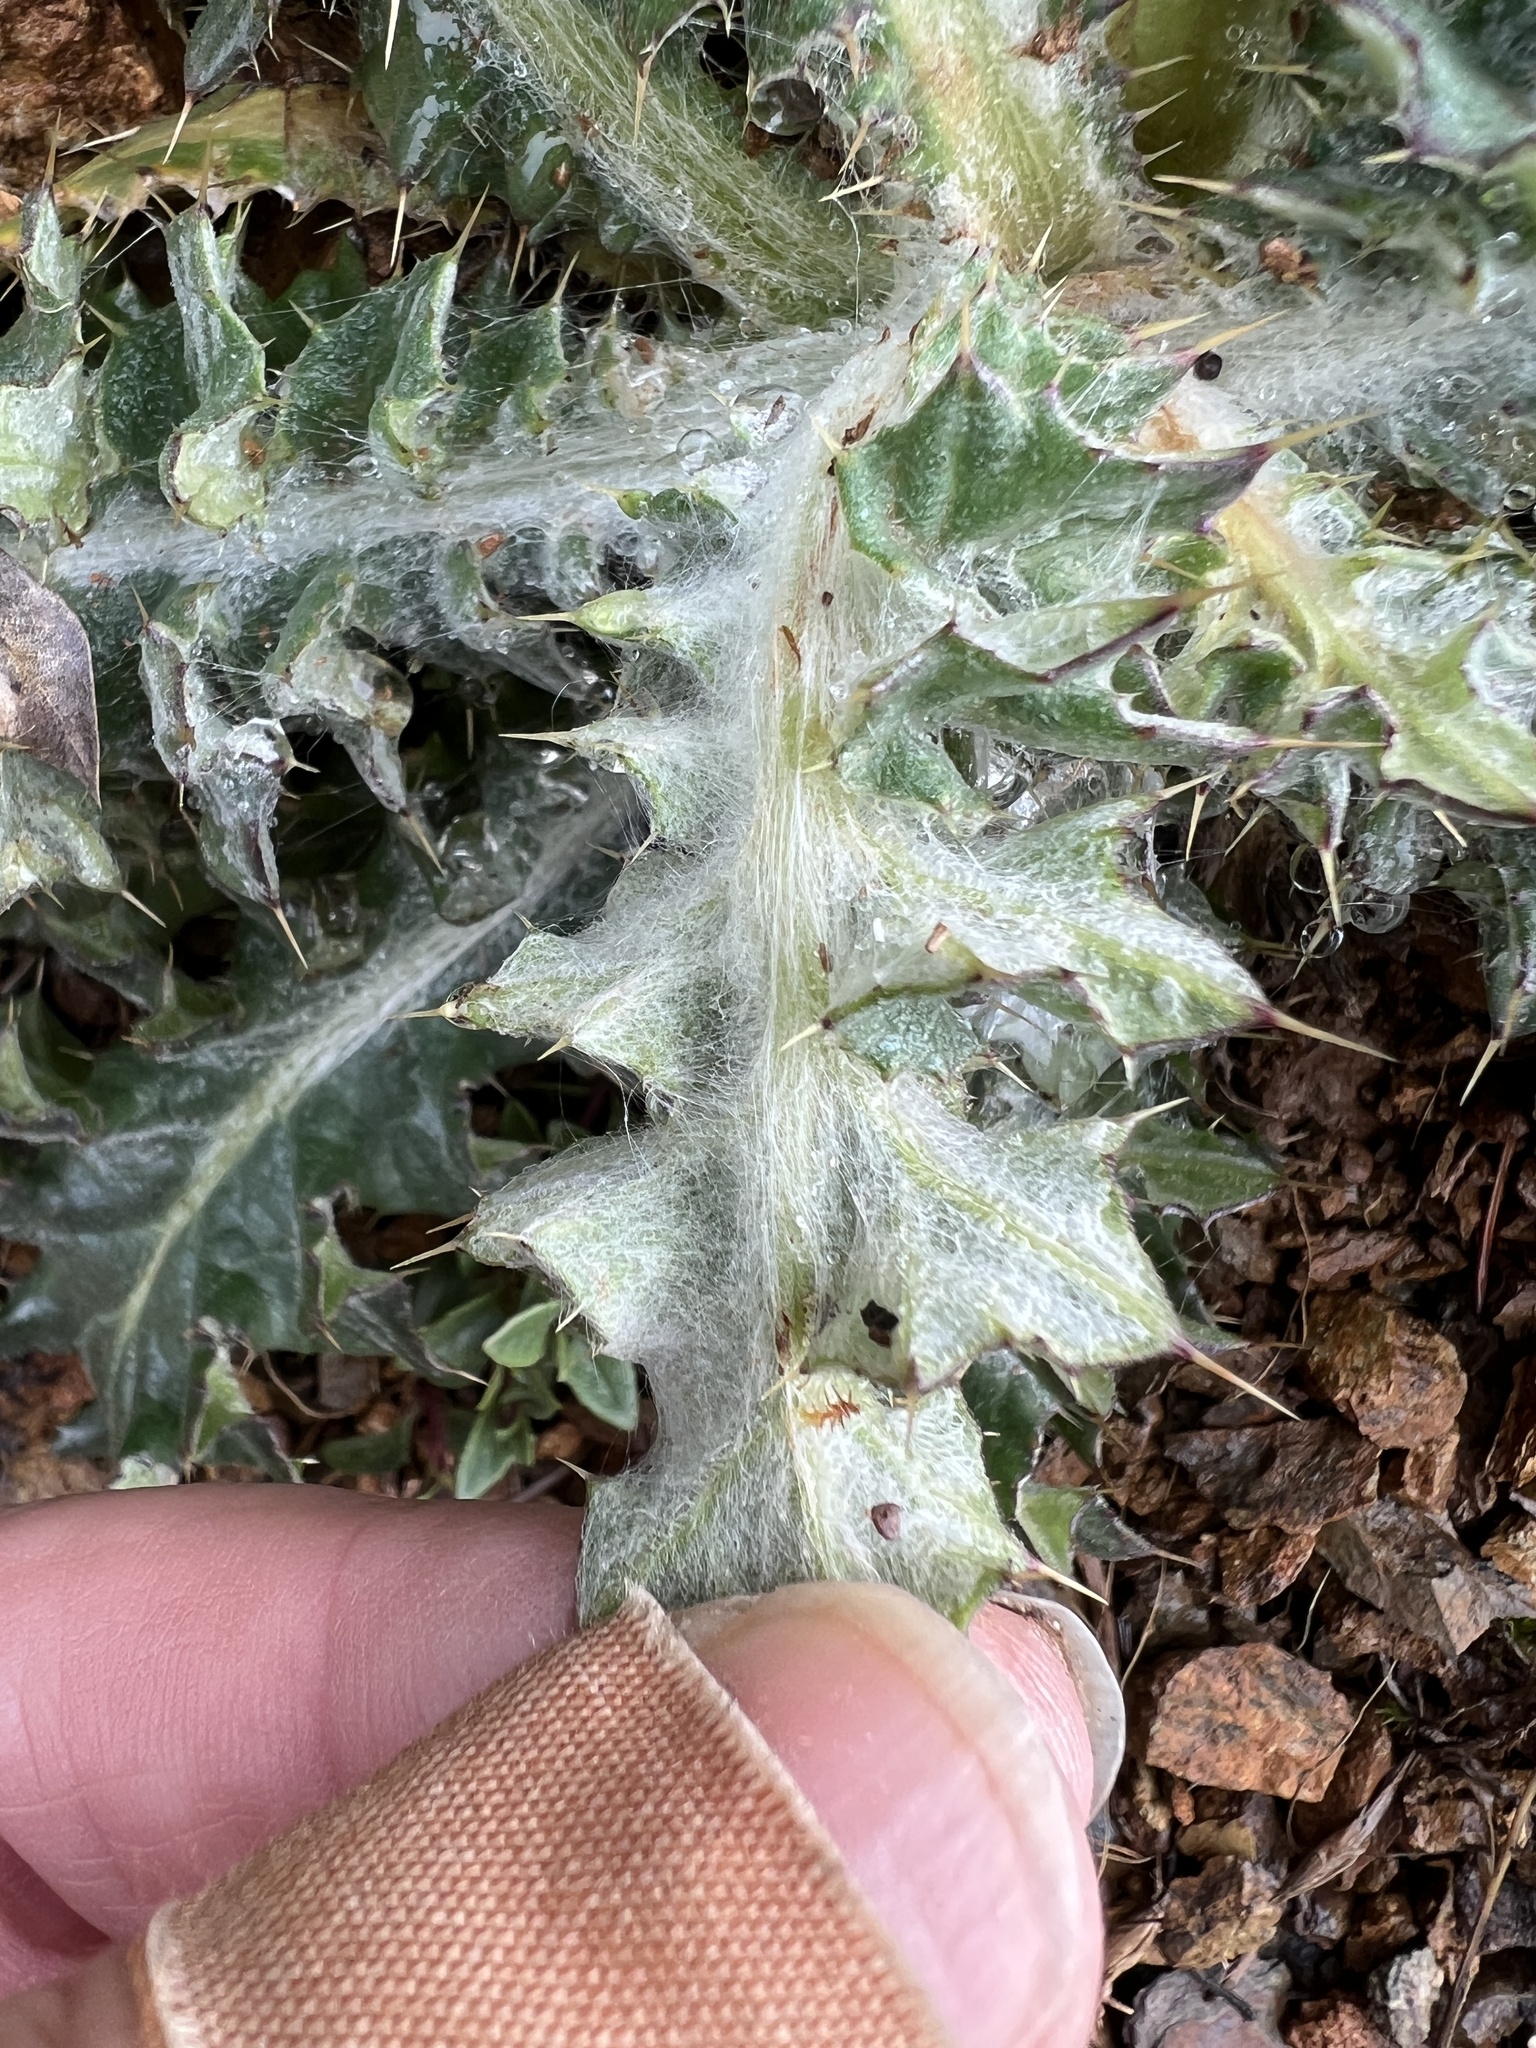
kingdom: Plantae
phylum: Tracheophyta
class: Magnoliopsida
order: Asterales
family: Asteraceae
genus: Cirsium
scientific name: Cirsium occidentale
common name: Western thistle
